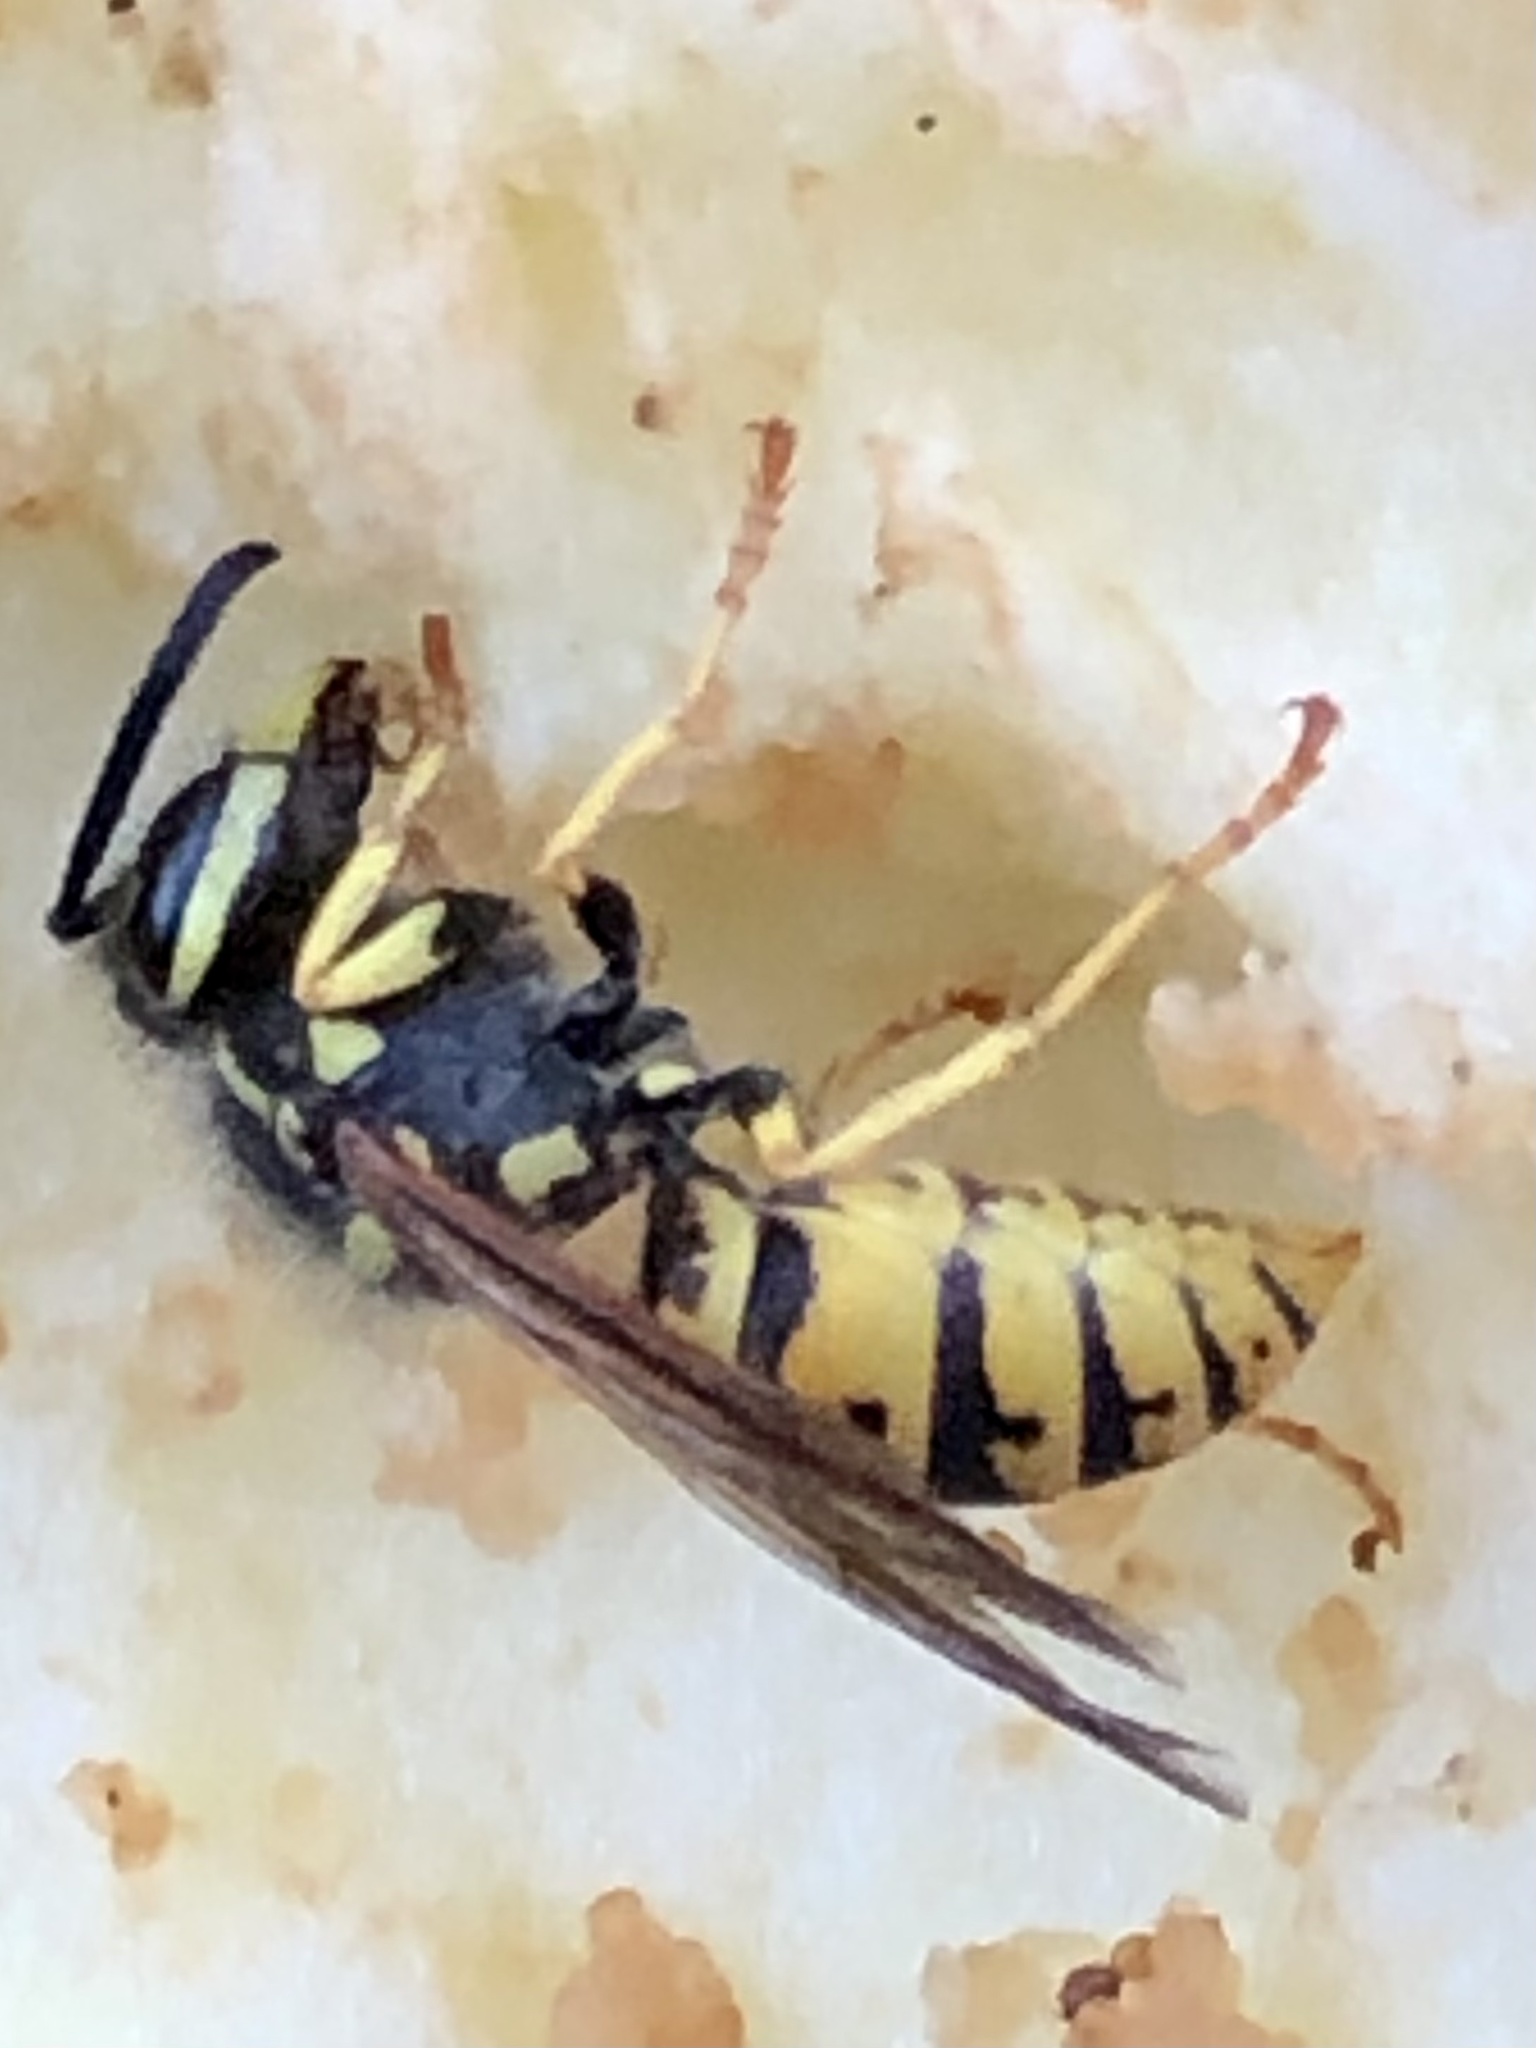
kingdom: Animalia
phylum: Arthropoda
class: Insecta
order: Hymenoptera
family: Vespidae
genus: Vespula
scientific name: Vespula germanica
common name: German wasp
